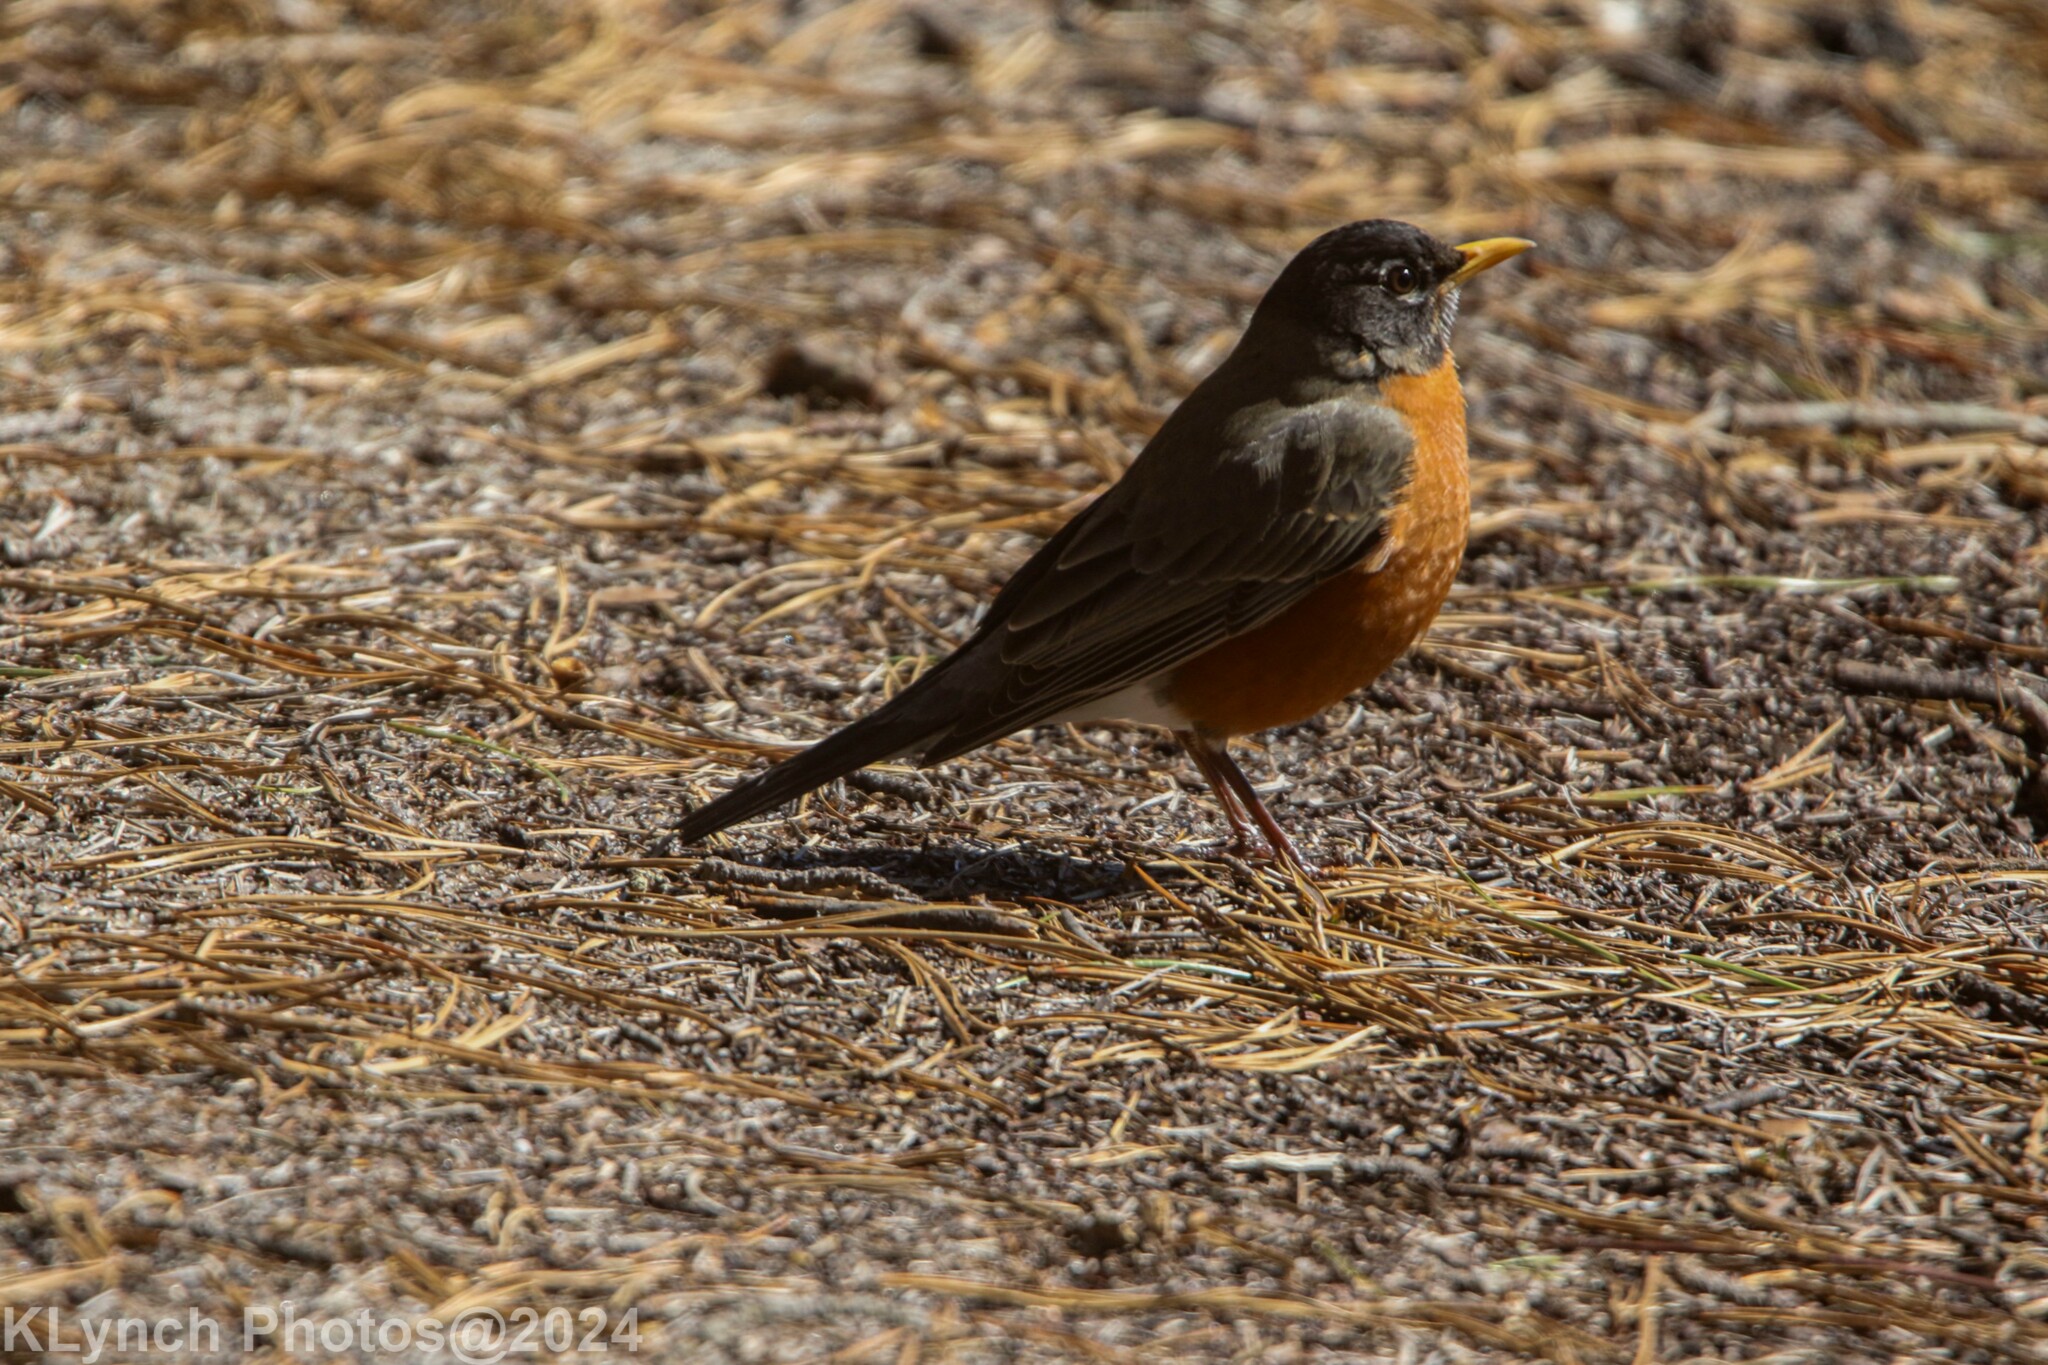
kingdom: Animalia
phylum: Chordata
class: Aves
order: Passeriformes
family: Turdidae
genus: Turdus
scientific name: Turdus migratorius
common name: American robin
